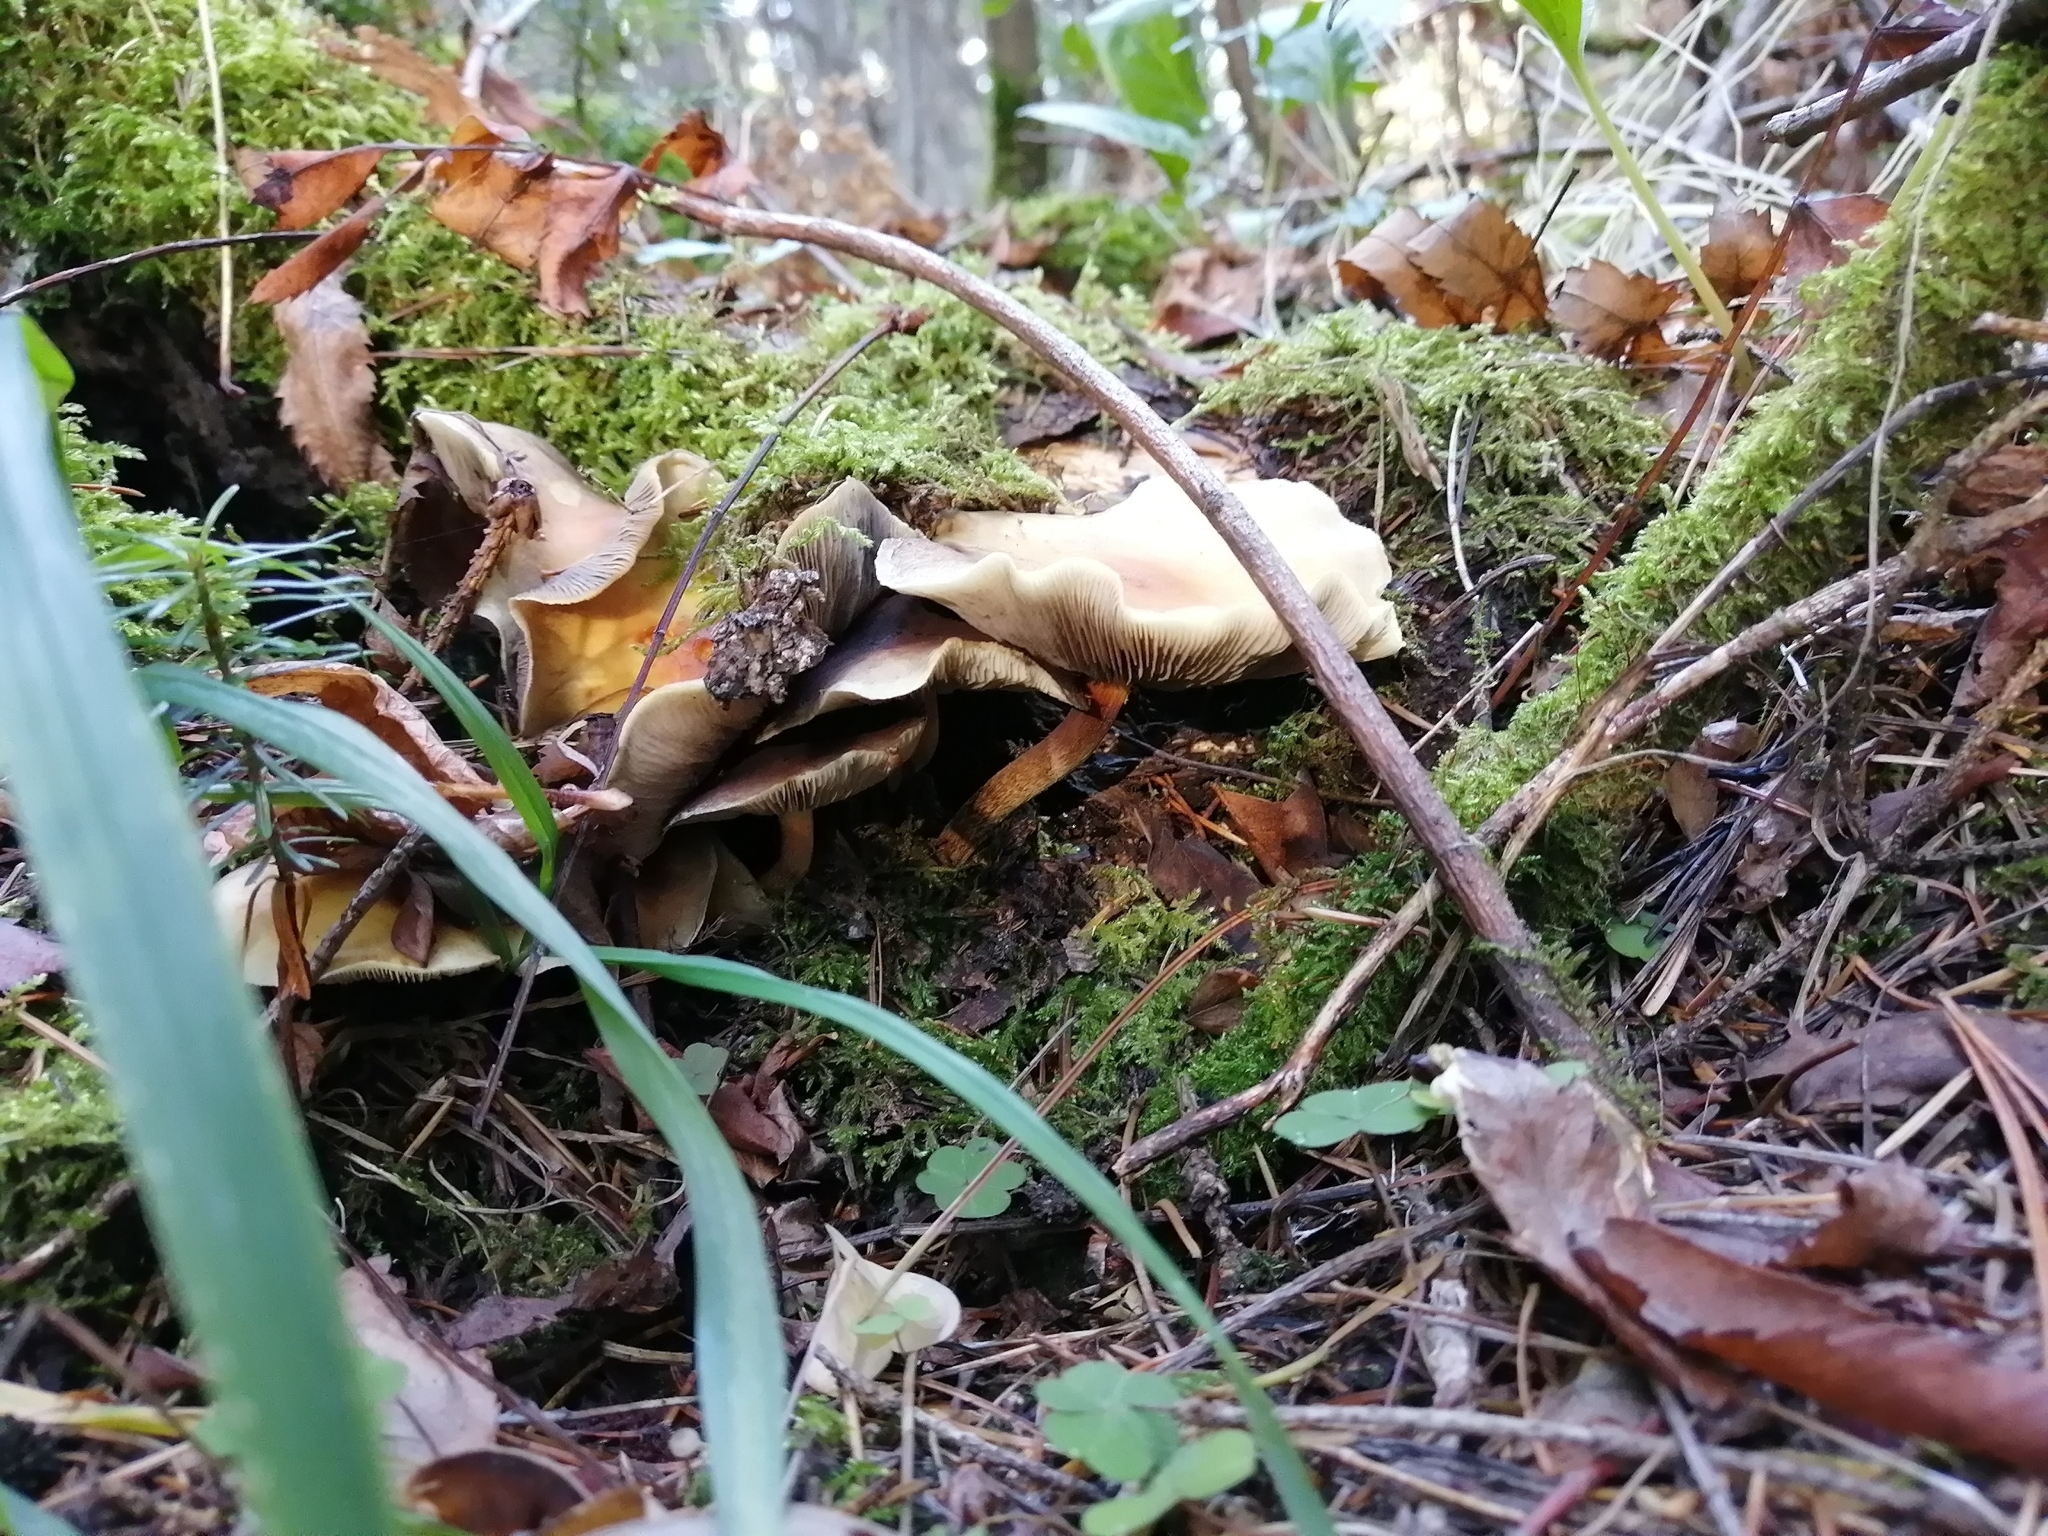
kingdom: Fungi
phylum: Basidiomycota
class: Agaricomycetes
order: Agaricales
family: Strophariaceae
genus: Hypholoma
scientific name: Hypholoma capnoides
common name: Conifer tuft
